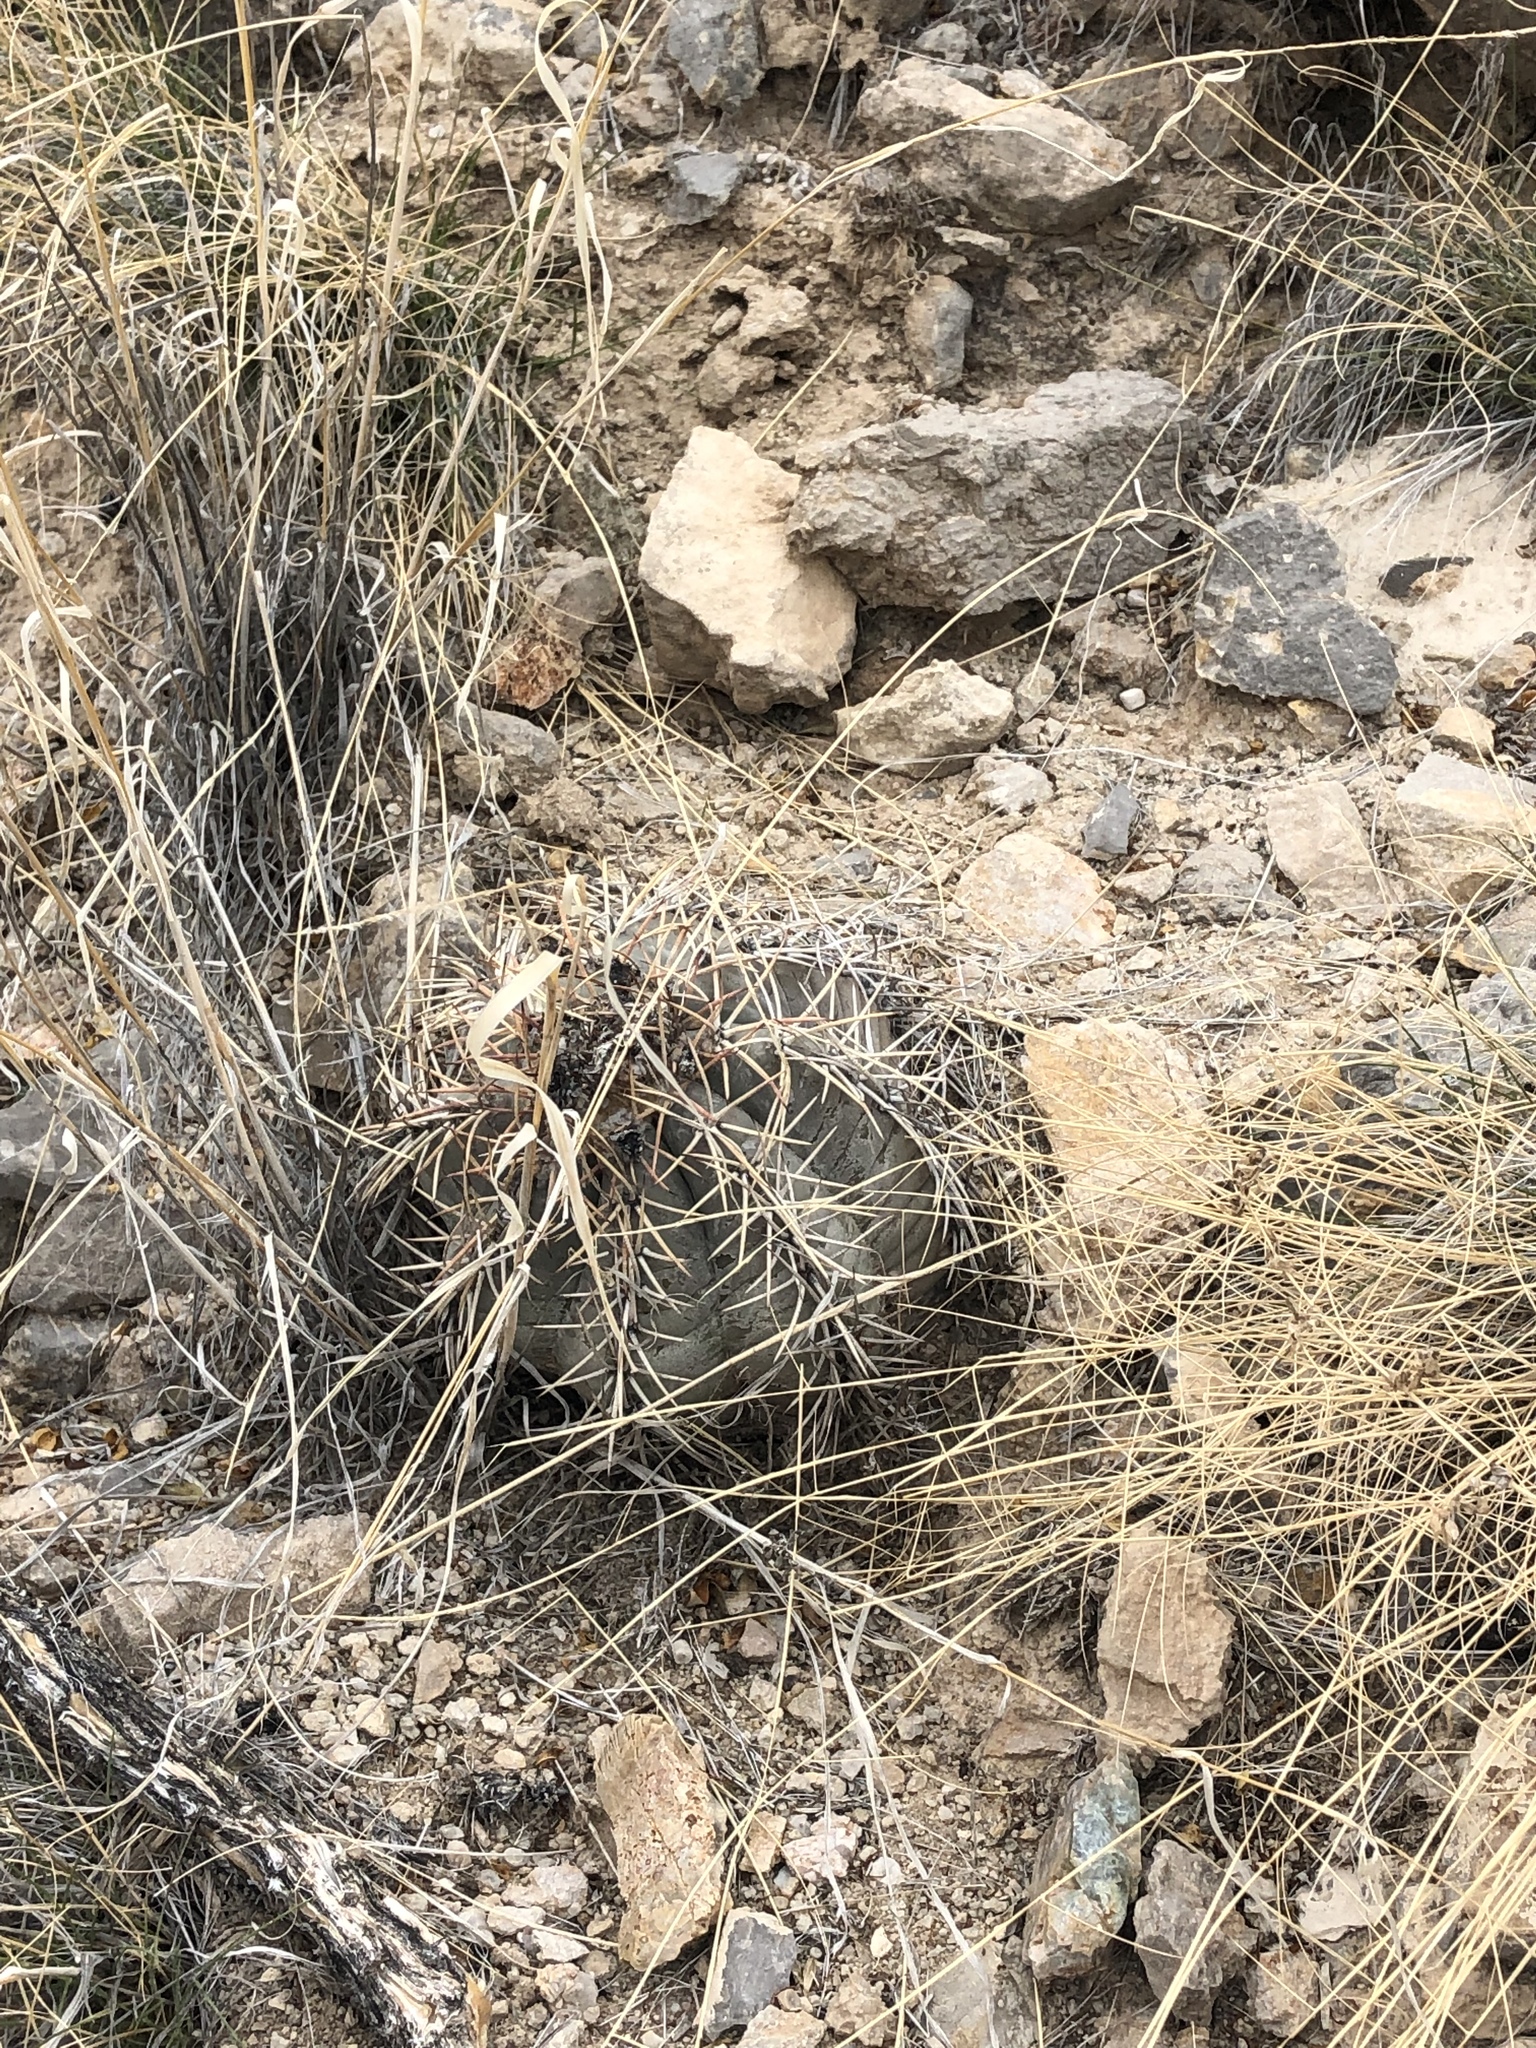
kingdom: Plantae
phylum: Tracheophyta
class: Magnoliopsida
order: Caryophyllales
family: Cactaceae
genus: Echinocactus
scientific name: Echinocactus horizonthalonius
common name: Devilshead
